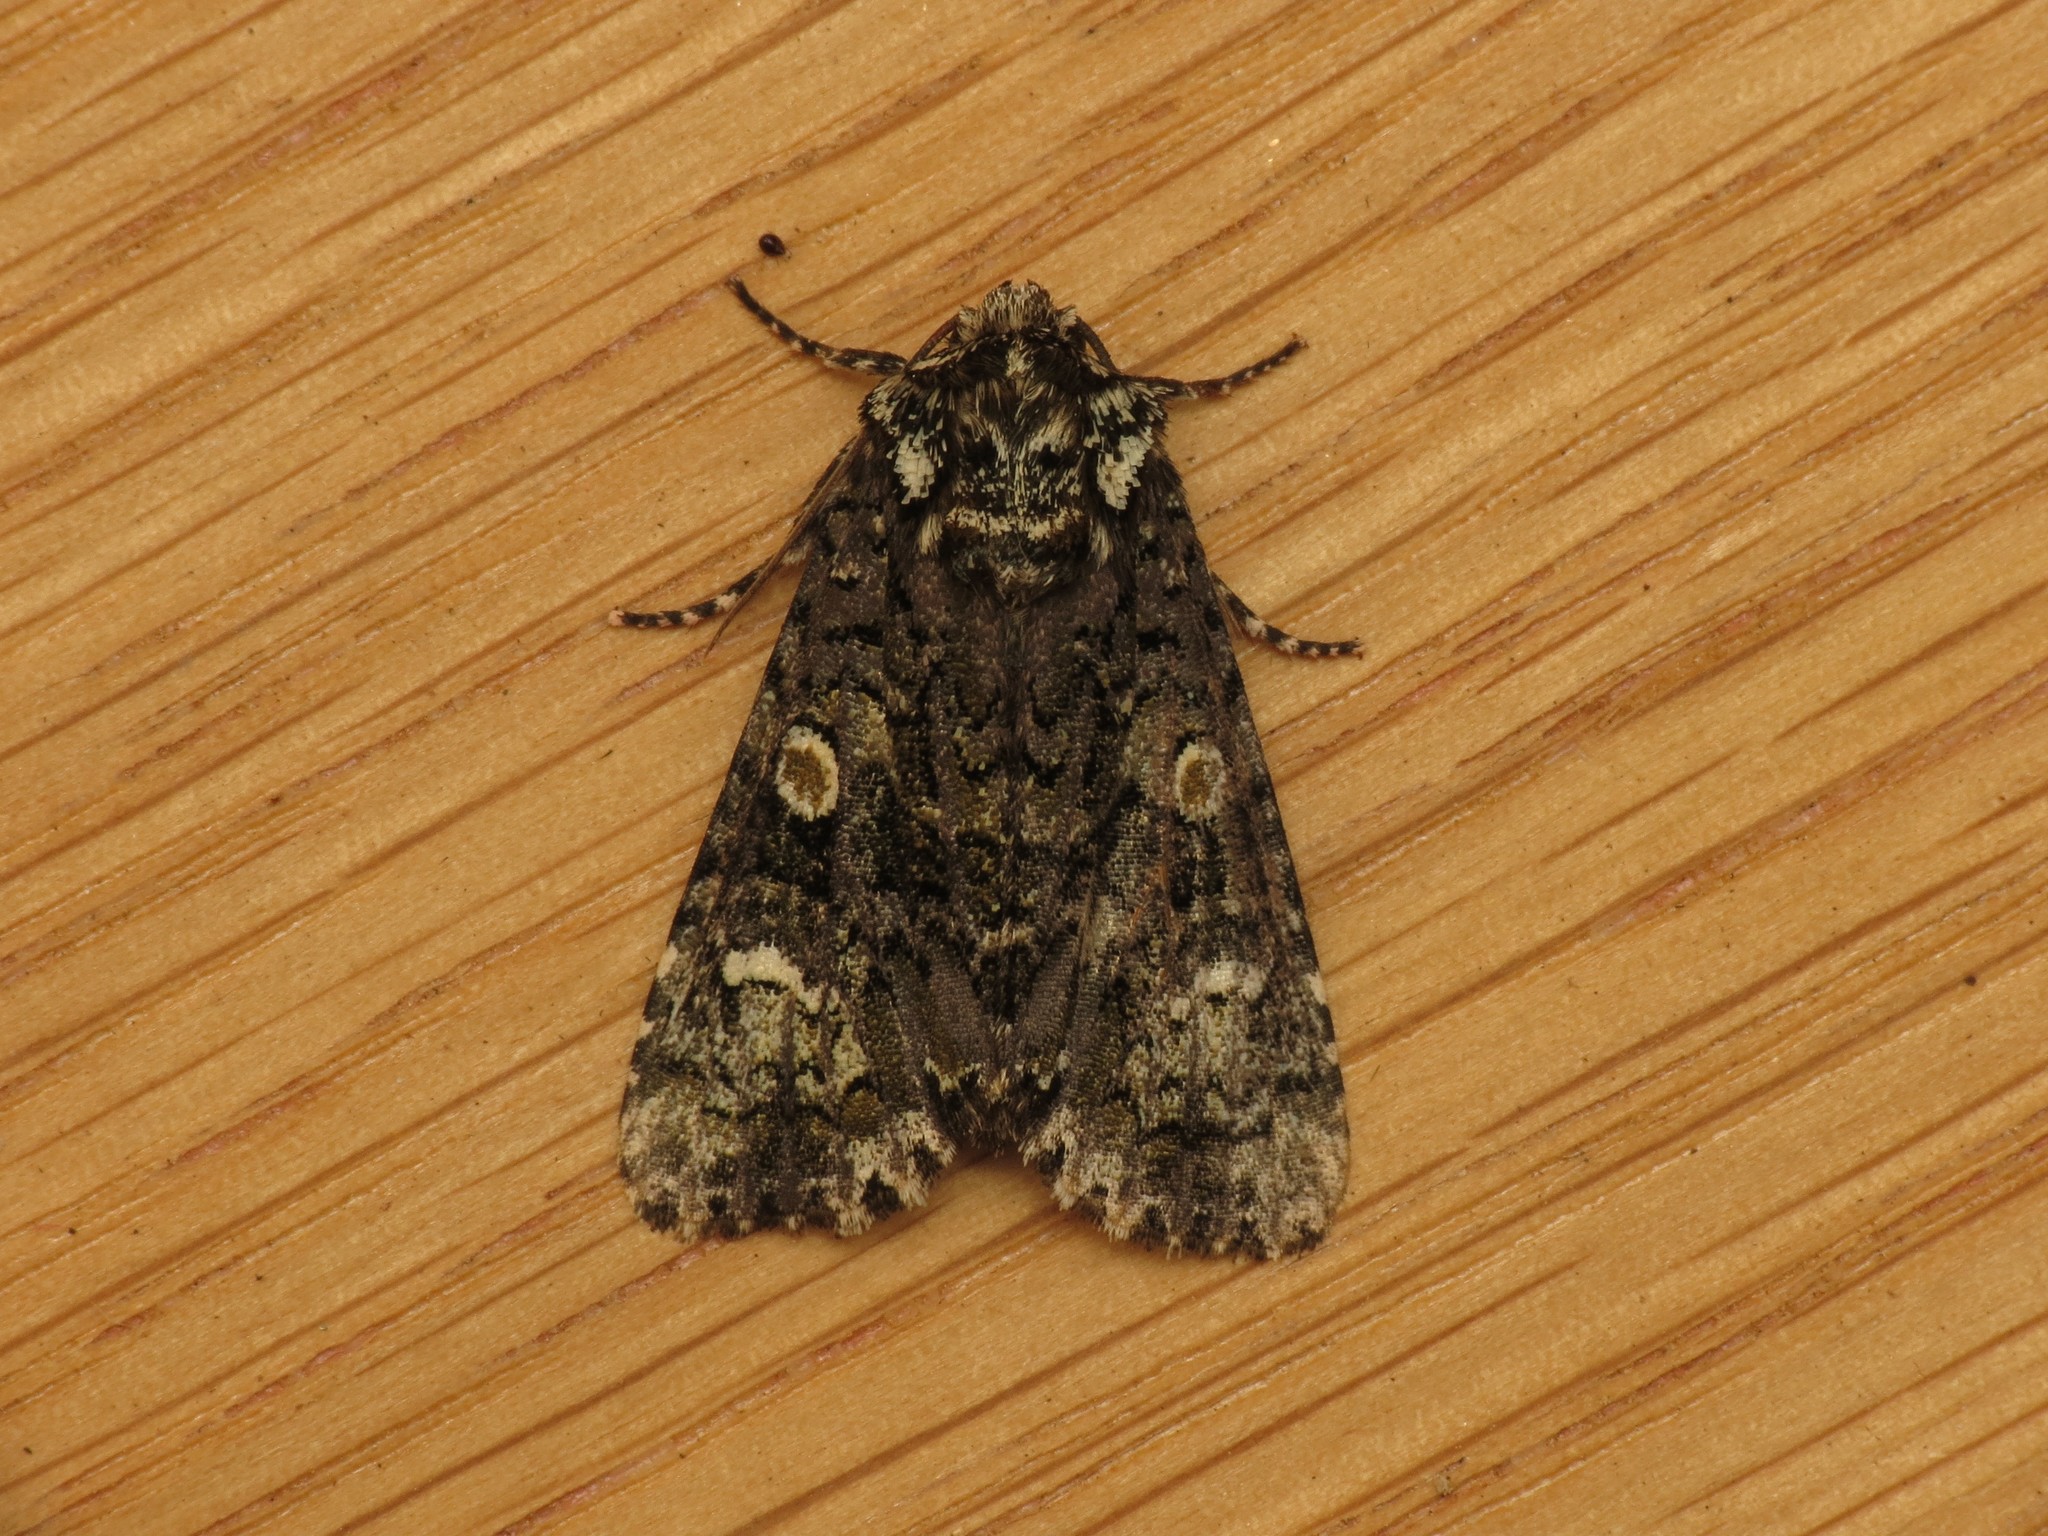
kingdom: Animalia
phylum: Arthropoda
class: Insecta
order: Lepidoptera
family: Noctuidae
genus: Craniophora
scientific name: Craniophora ligustri
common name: Coronet
